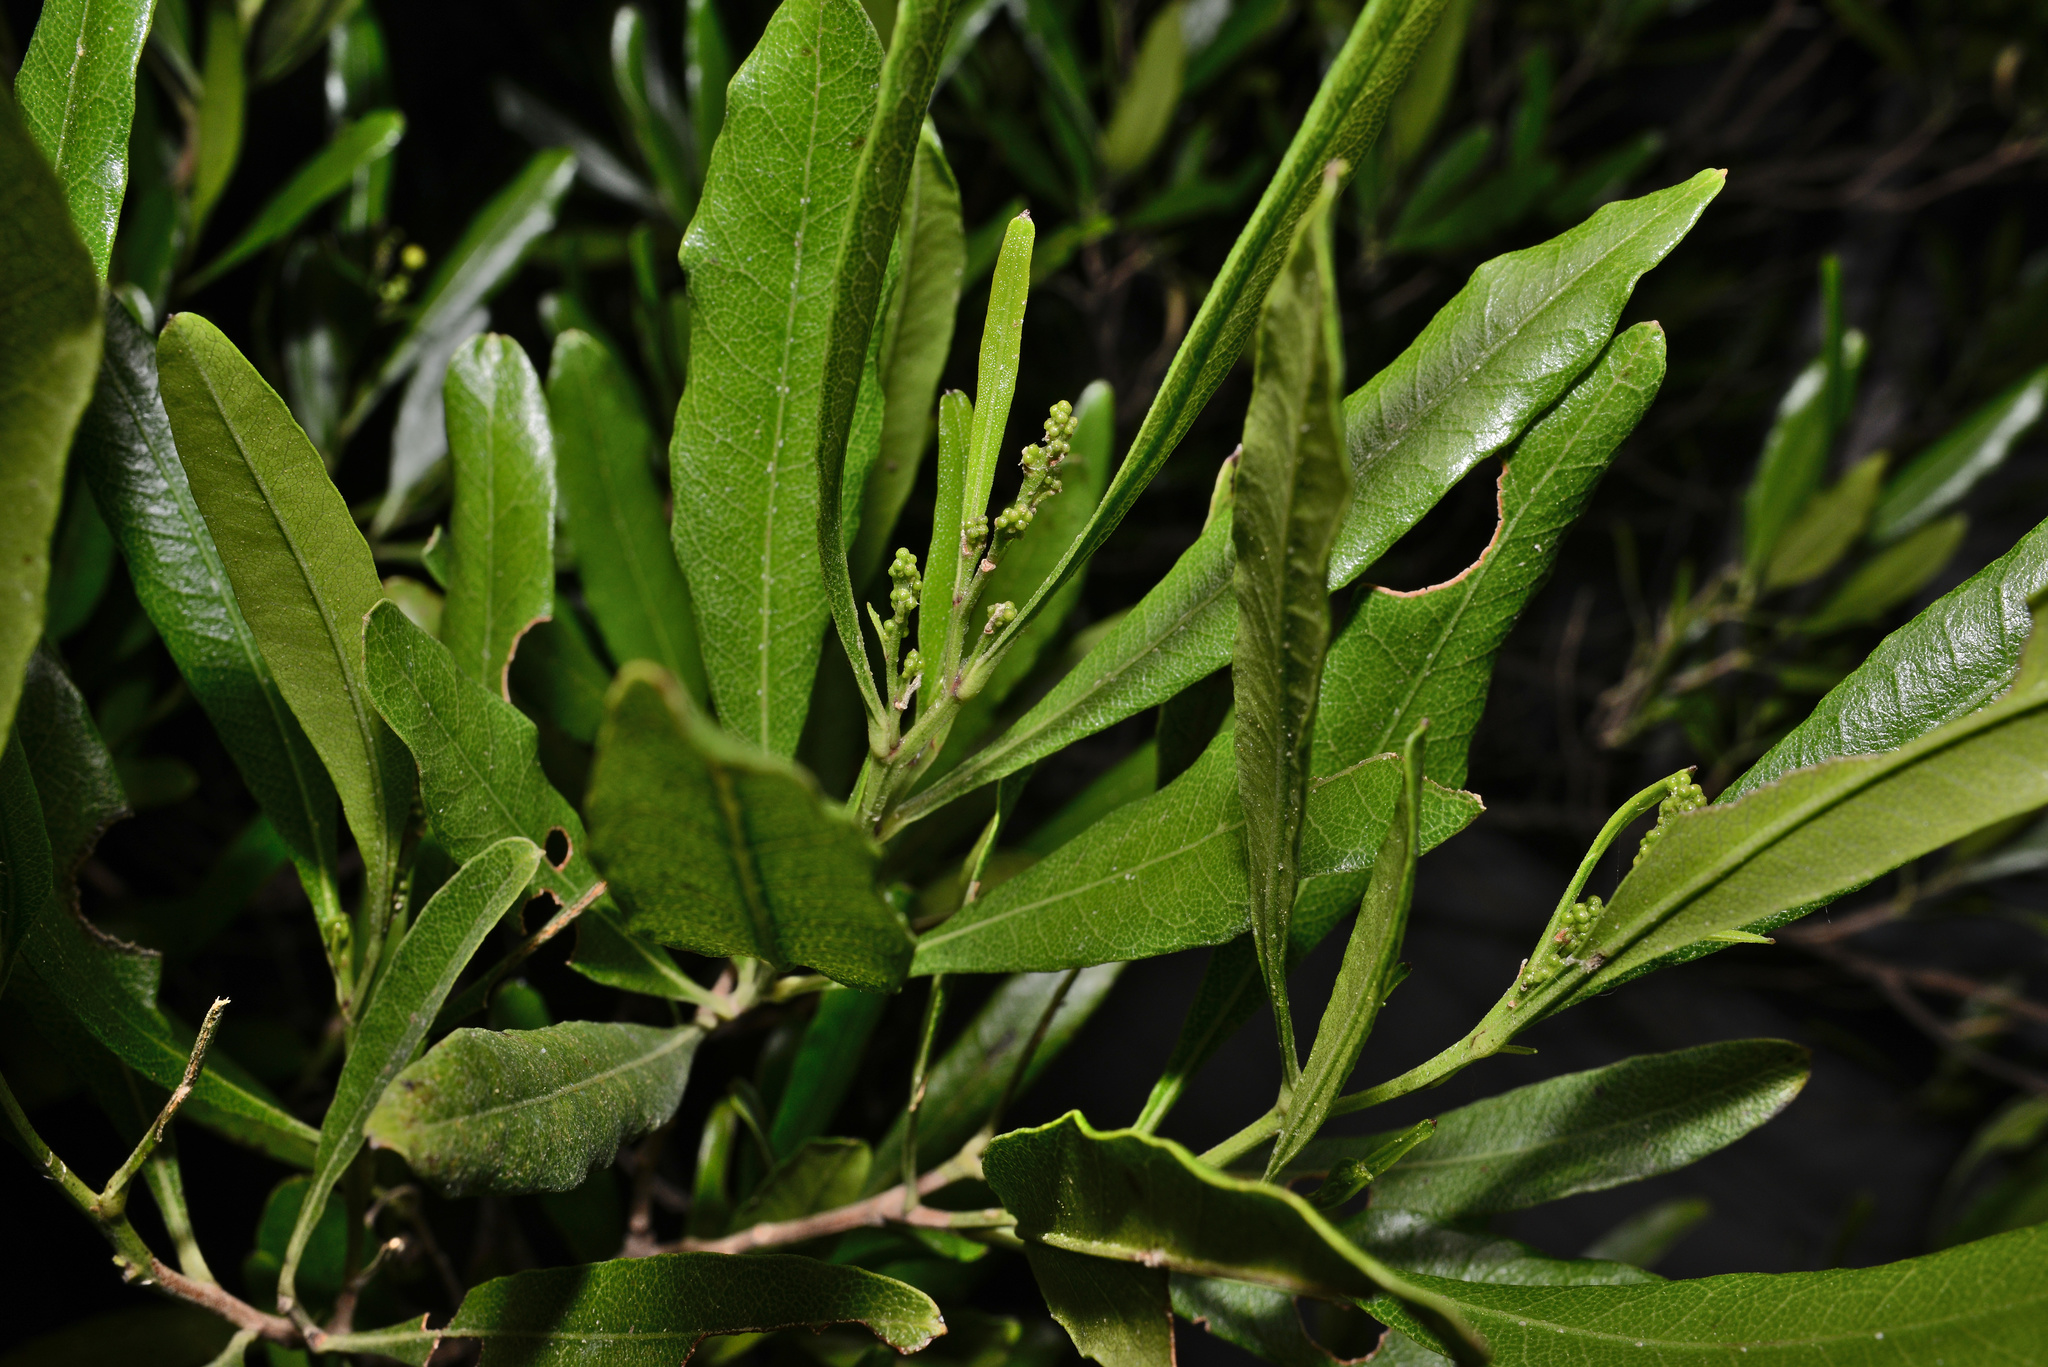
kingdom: Plantae
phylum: Tracheophyta
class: Magnoliopsida
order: Sapindales
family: Sapindaceae
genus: Dodonaea
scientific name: Dodonaea viscosa
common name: Hopbush
